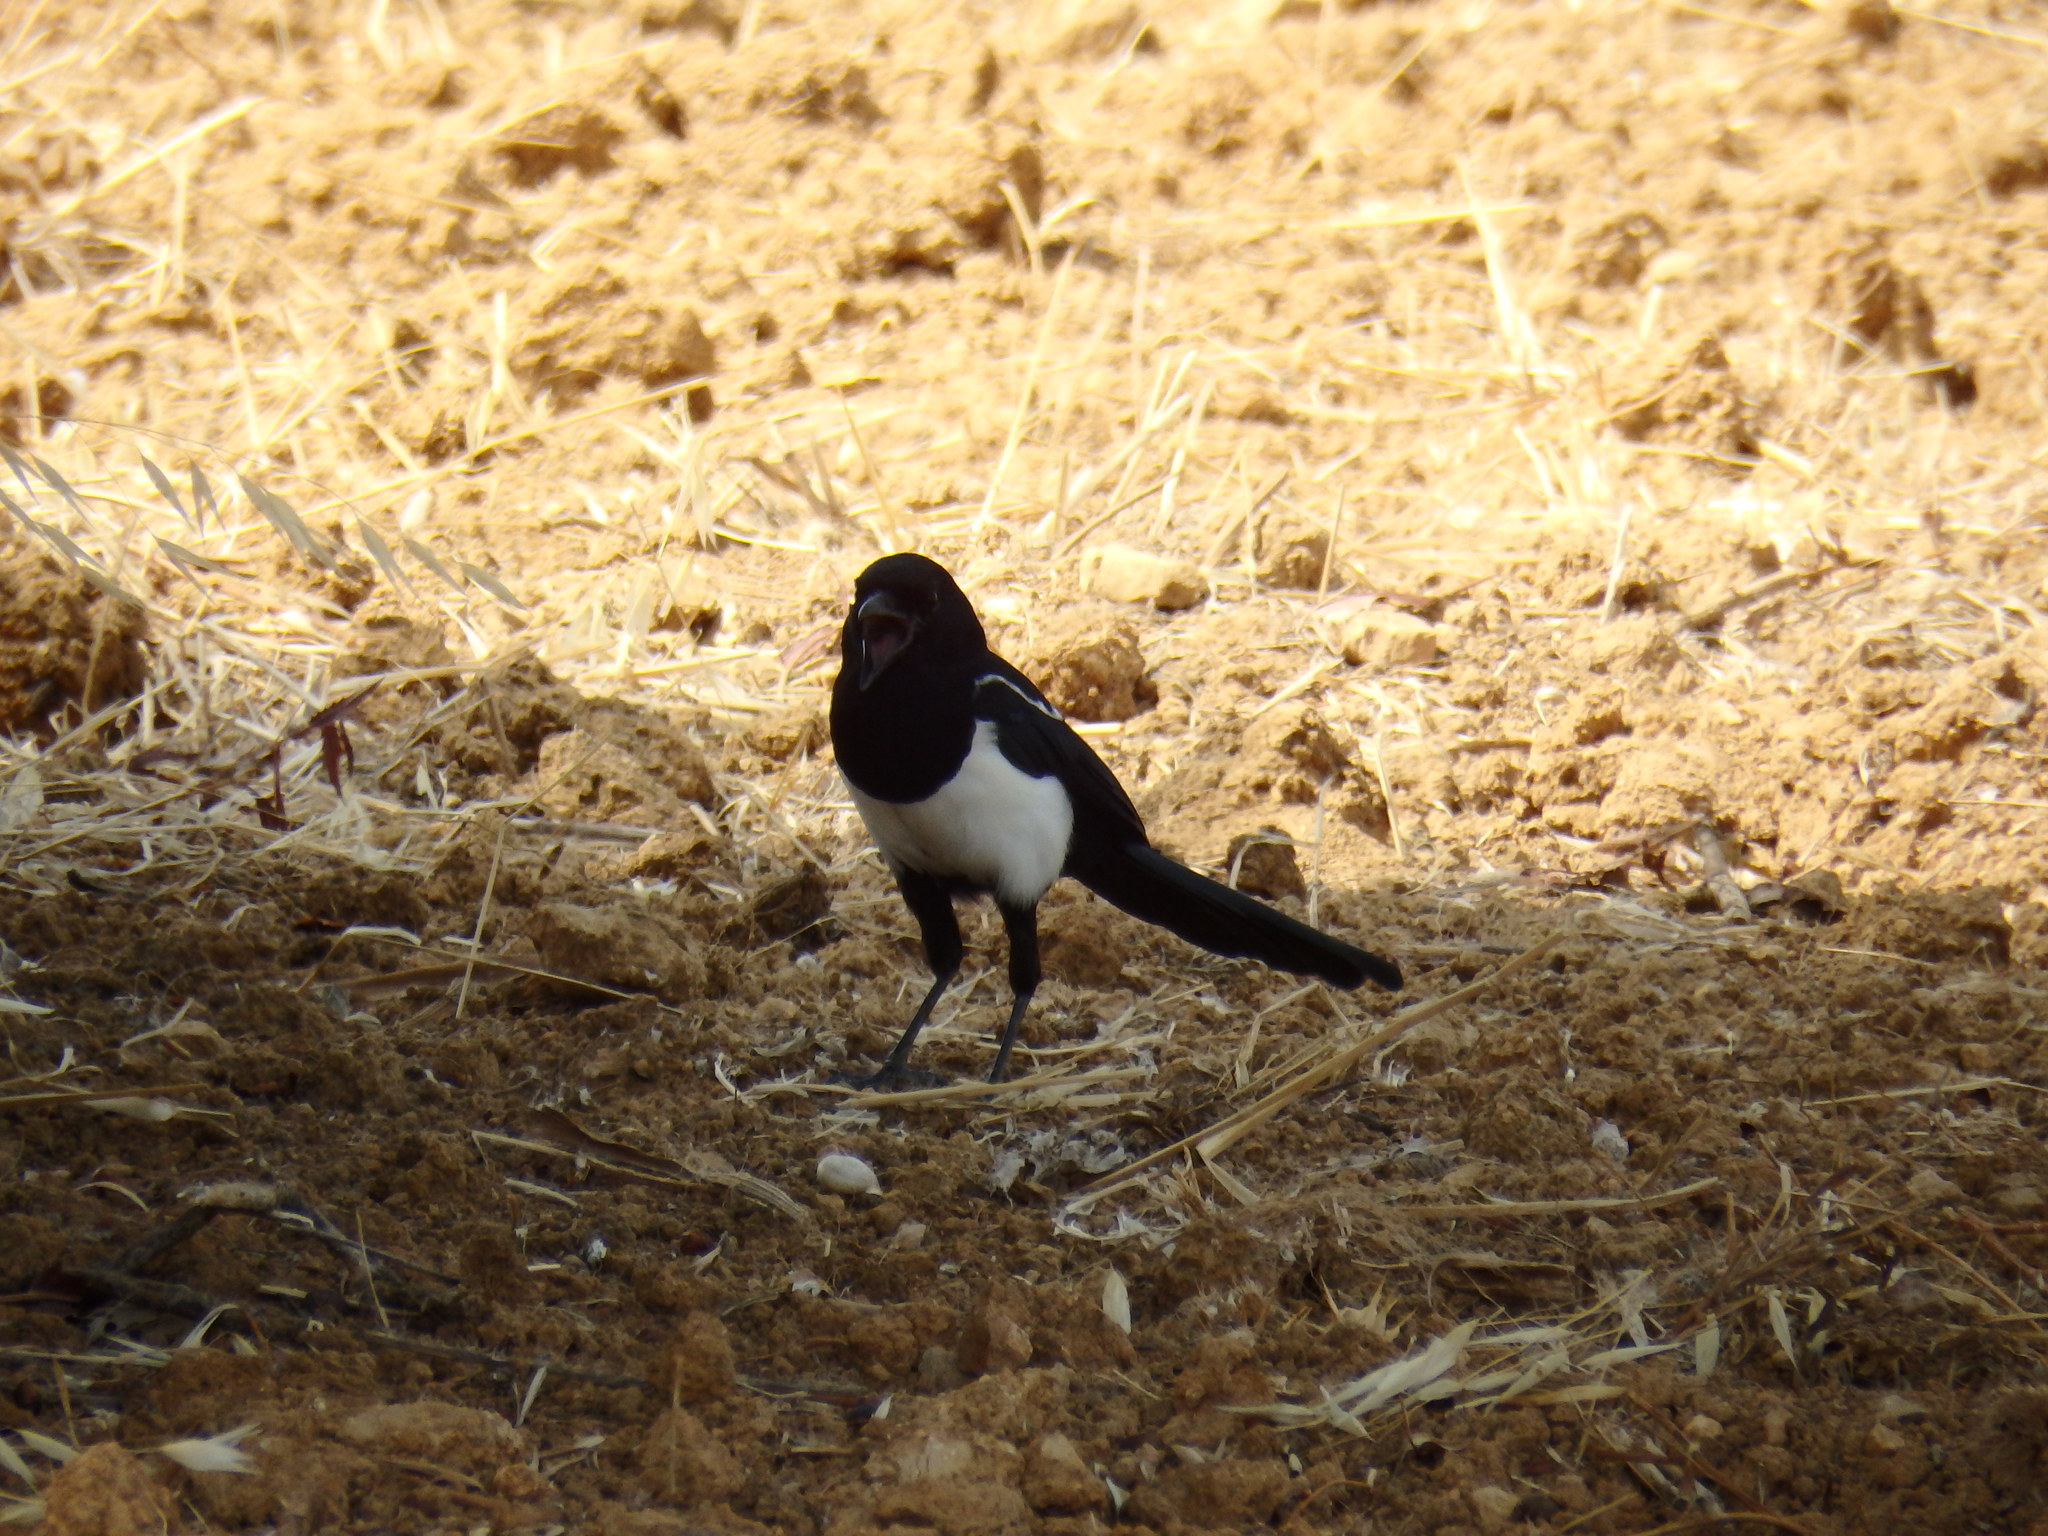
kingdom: Animalia
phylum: Chordata
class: Aves
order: Passeriformes
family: Corvidae
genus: Pica
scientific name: Pica pica
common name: Eurasian magpie
